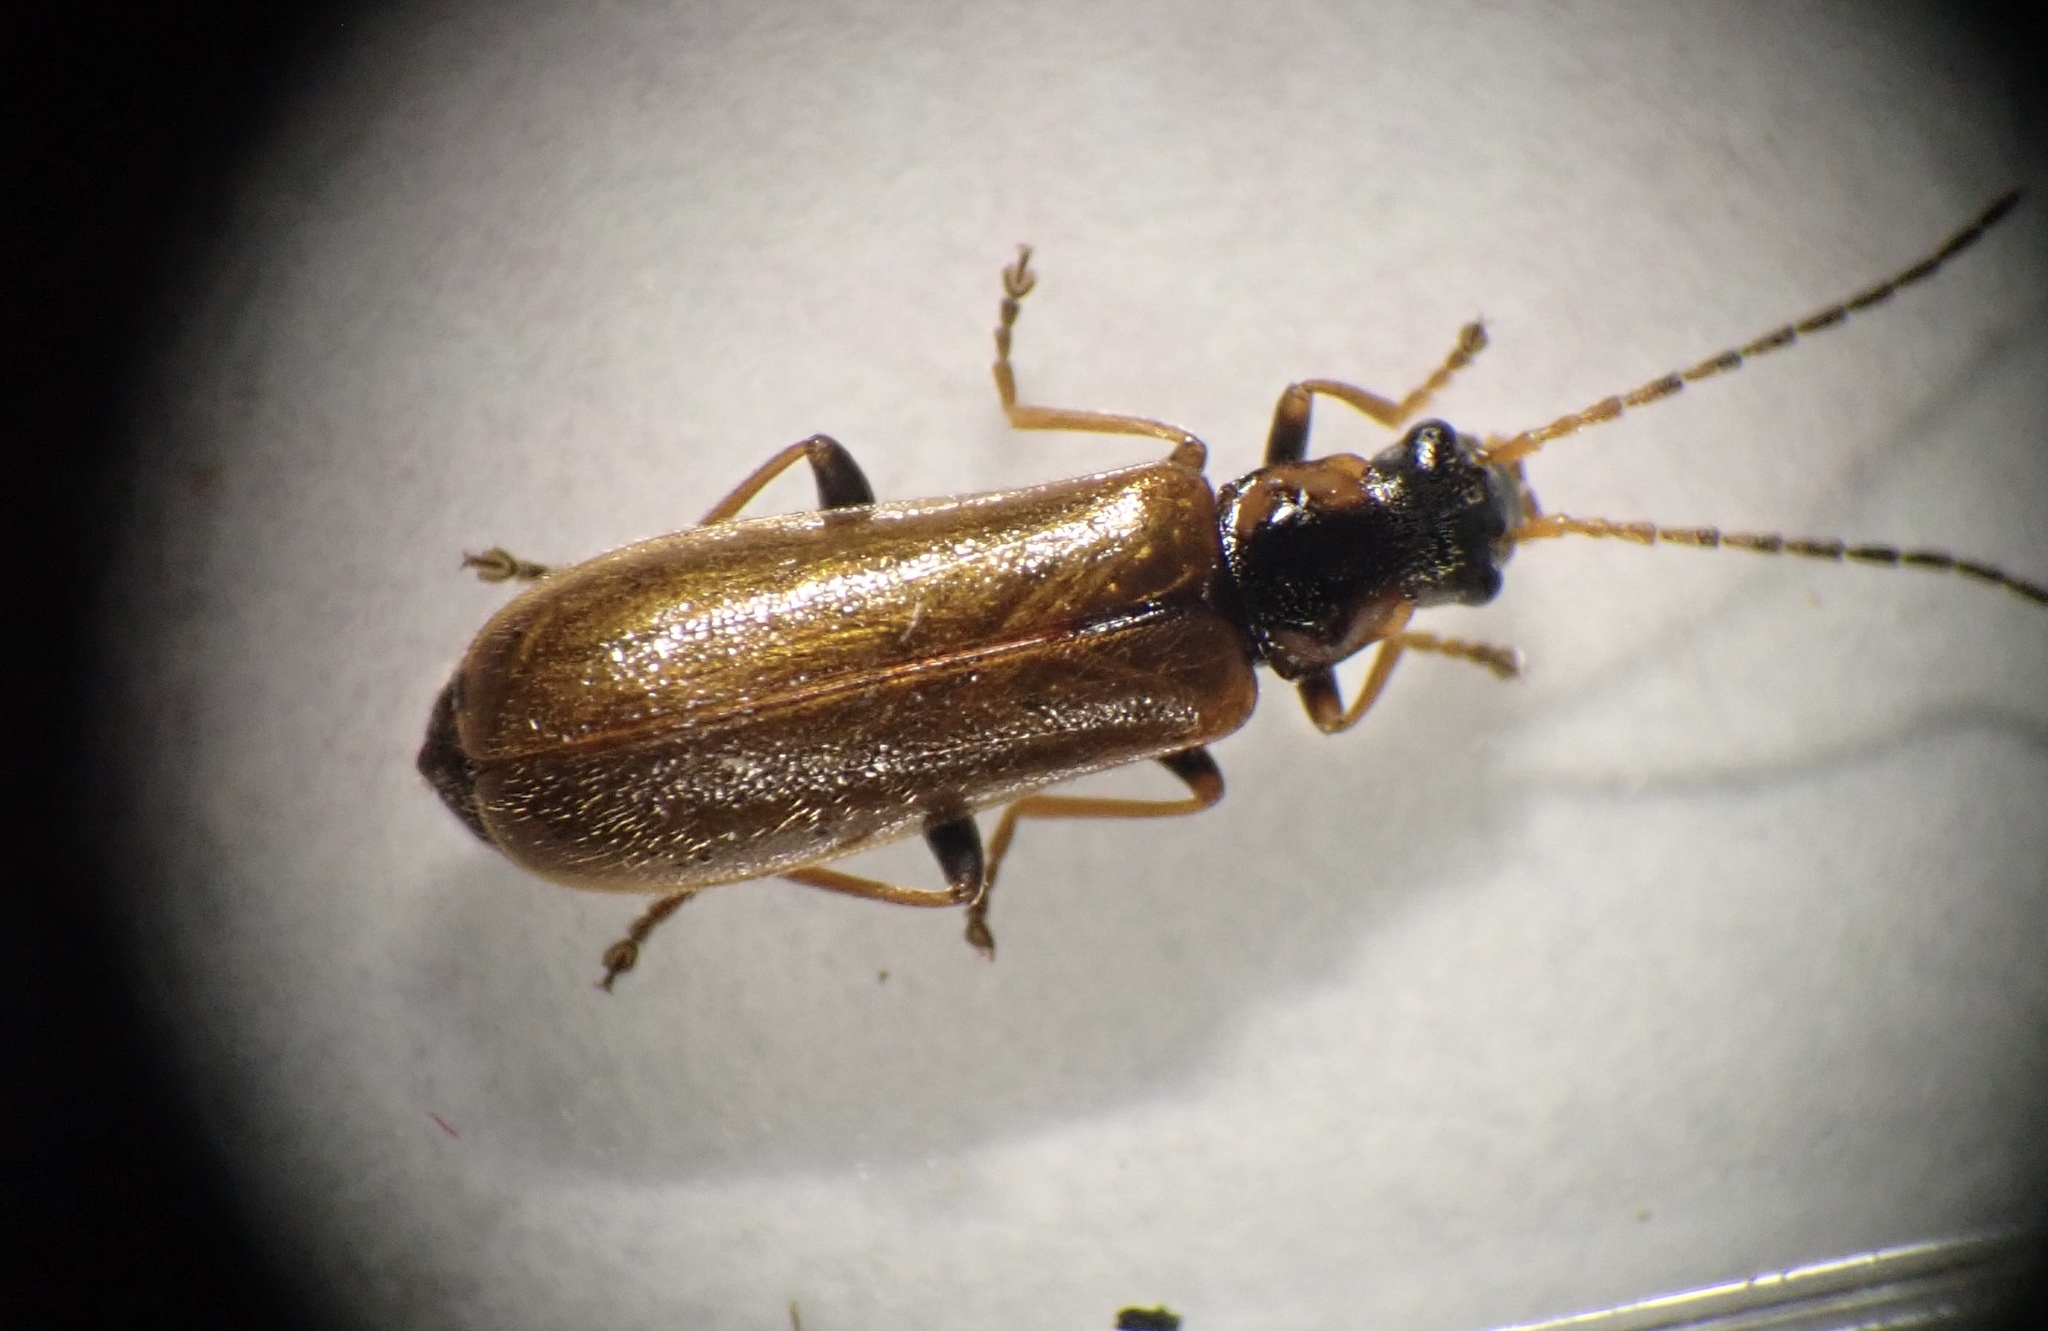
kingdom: Animalia
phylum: Arthropoda
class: Insecta
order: Coleoptera
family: Cantharidae
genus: Rhagonycha
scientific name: Rhagonycha nigriventris
